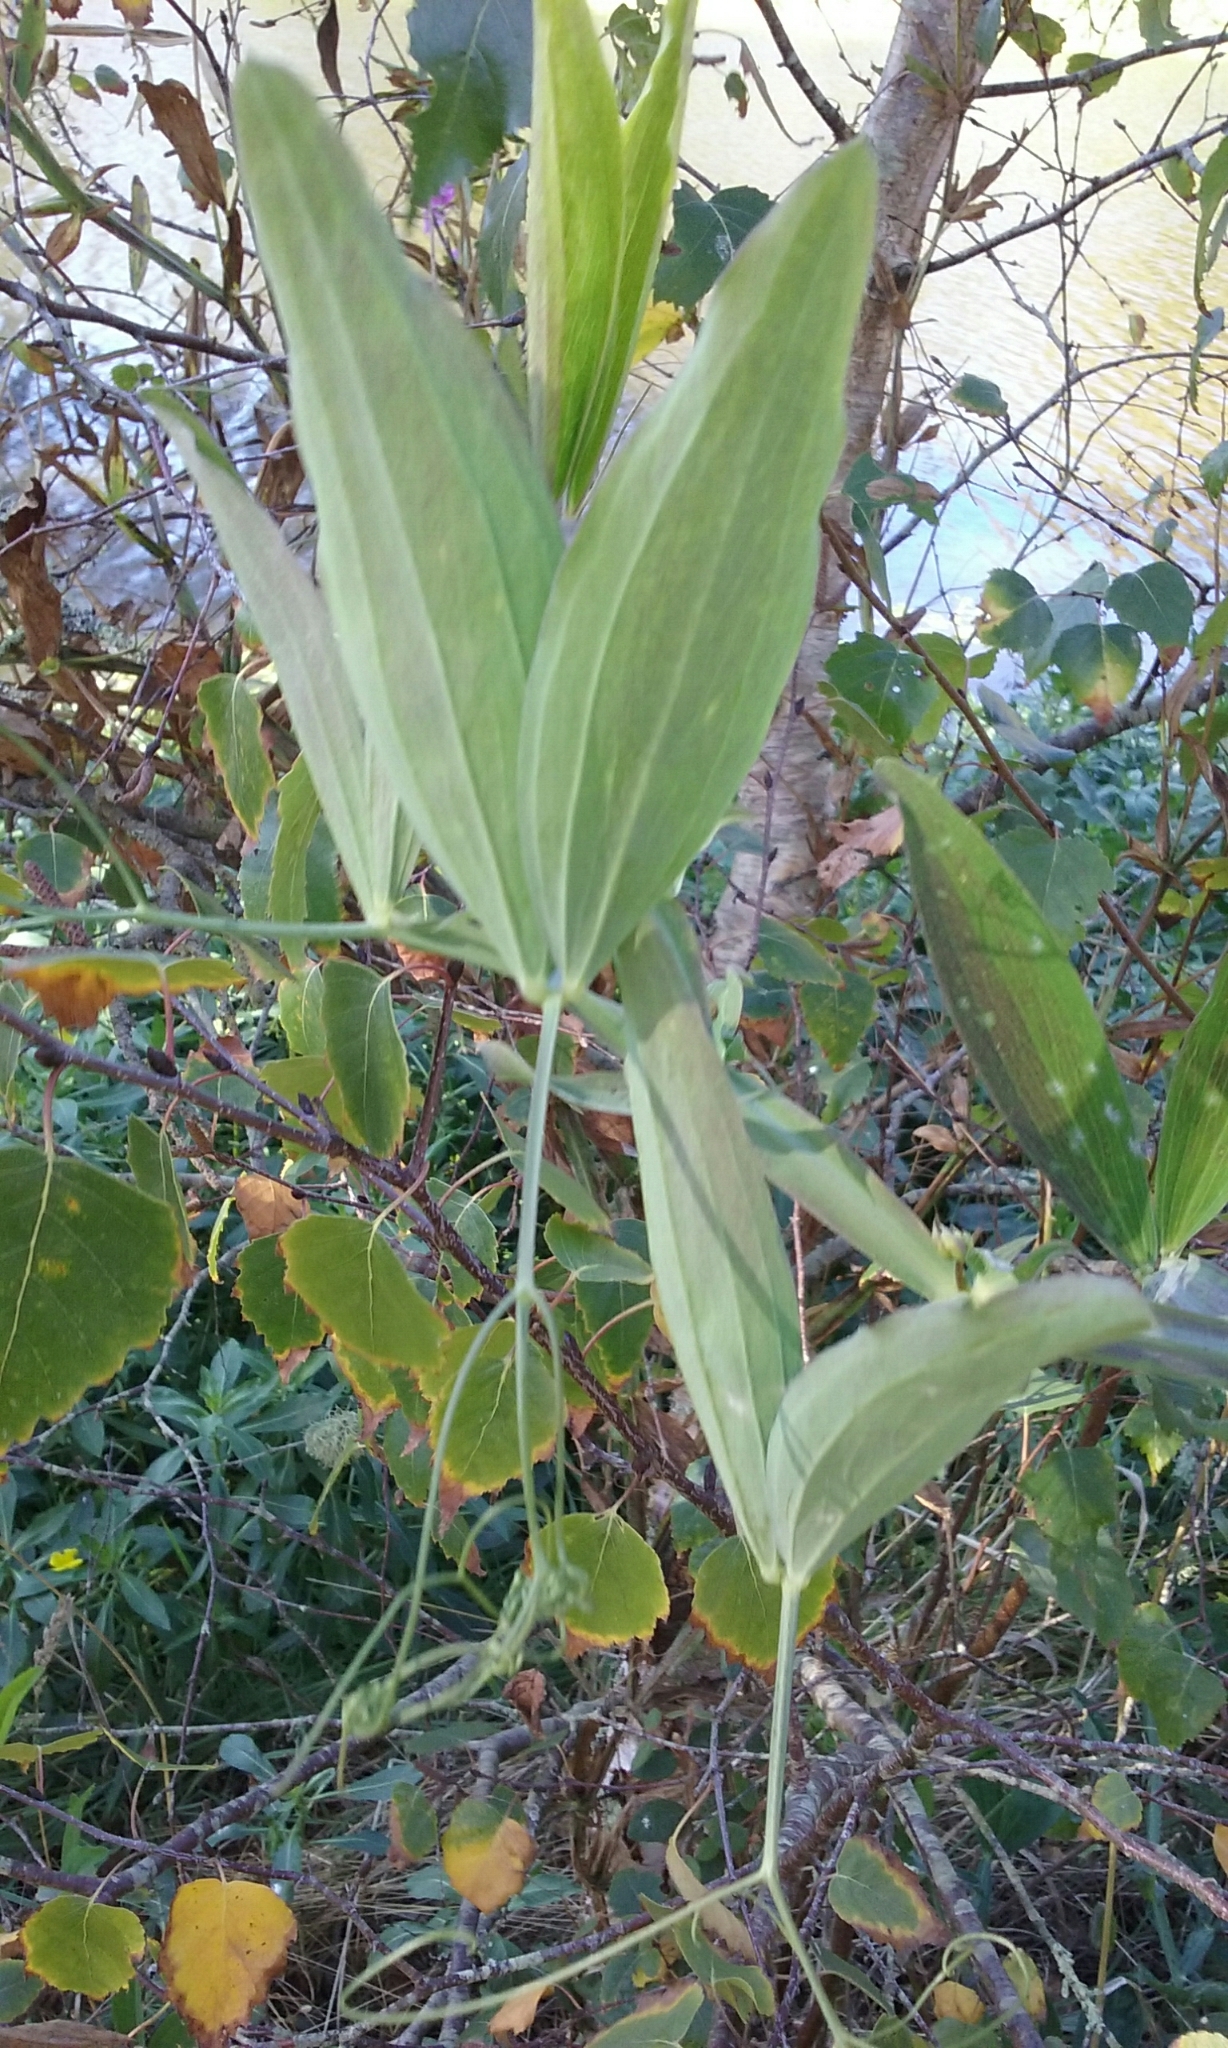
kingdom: Plantae
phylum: Tracheophyta
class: Magnoliopsida
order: Fabales
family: Fabaceae
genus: Lathyrus
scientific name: Lathyrus latifolius
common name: Perennial pea
